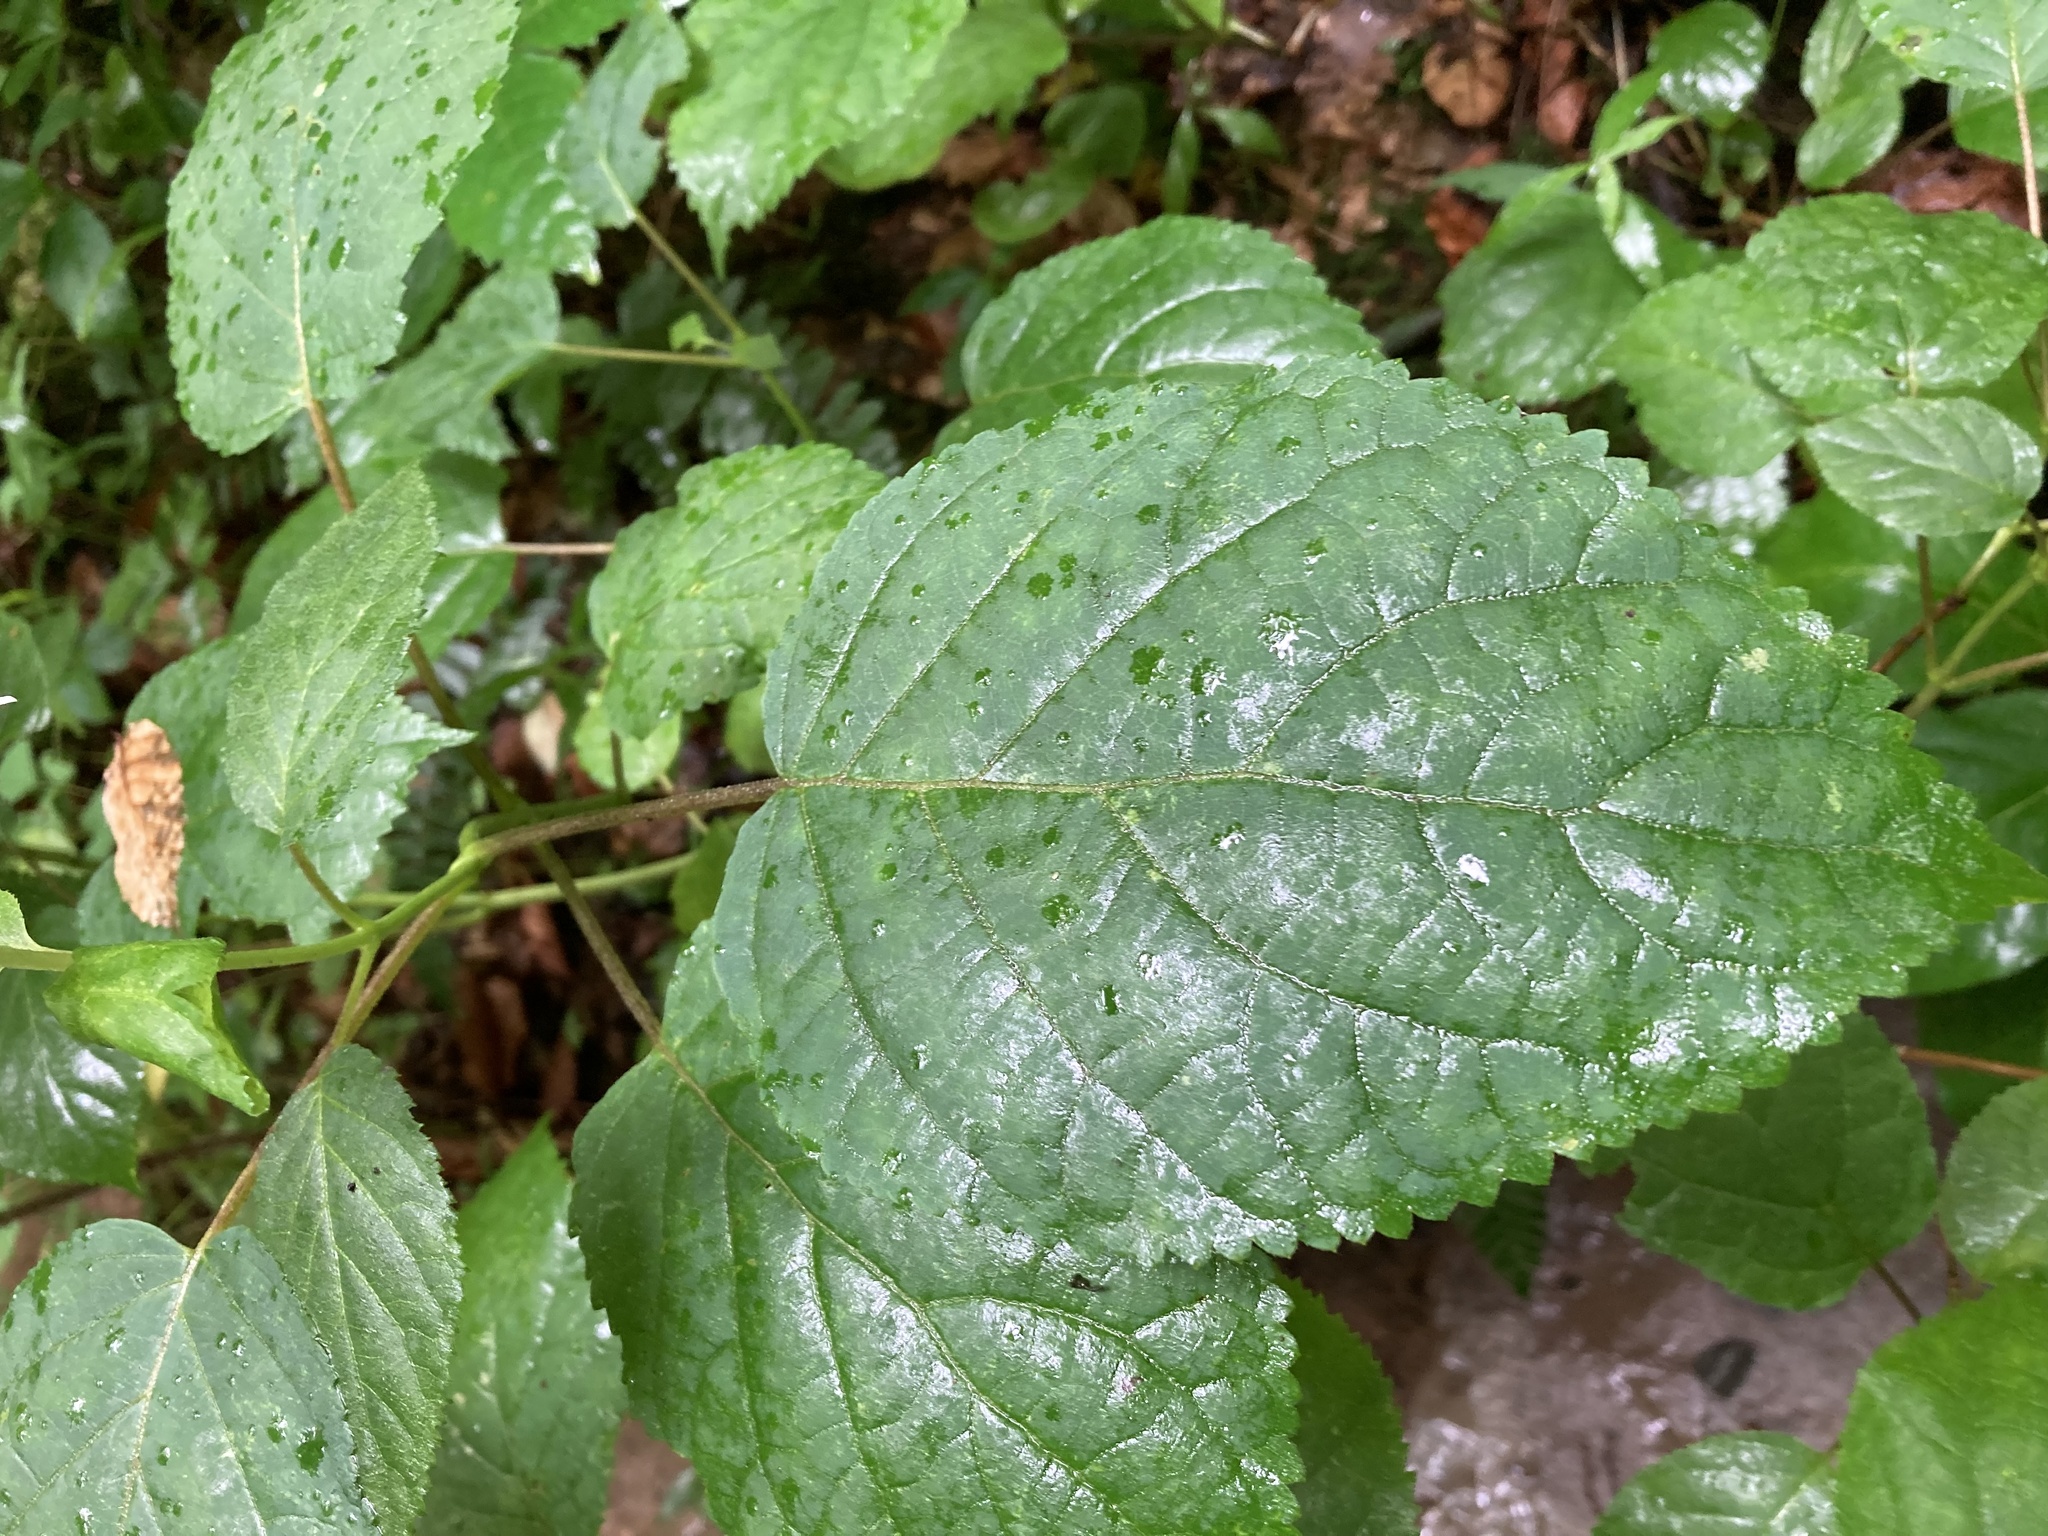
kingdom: Plantae
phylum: Tracheophyta
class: Magnoliopsida
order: Cornales
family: Hydrangeaceae
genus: Hydrangea
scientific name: Hydrangea arborescens
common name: Sevenbark
